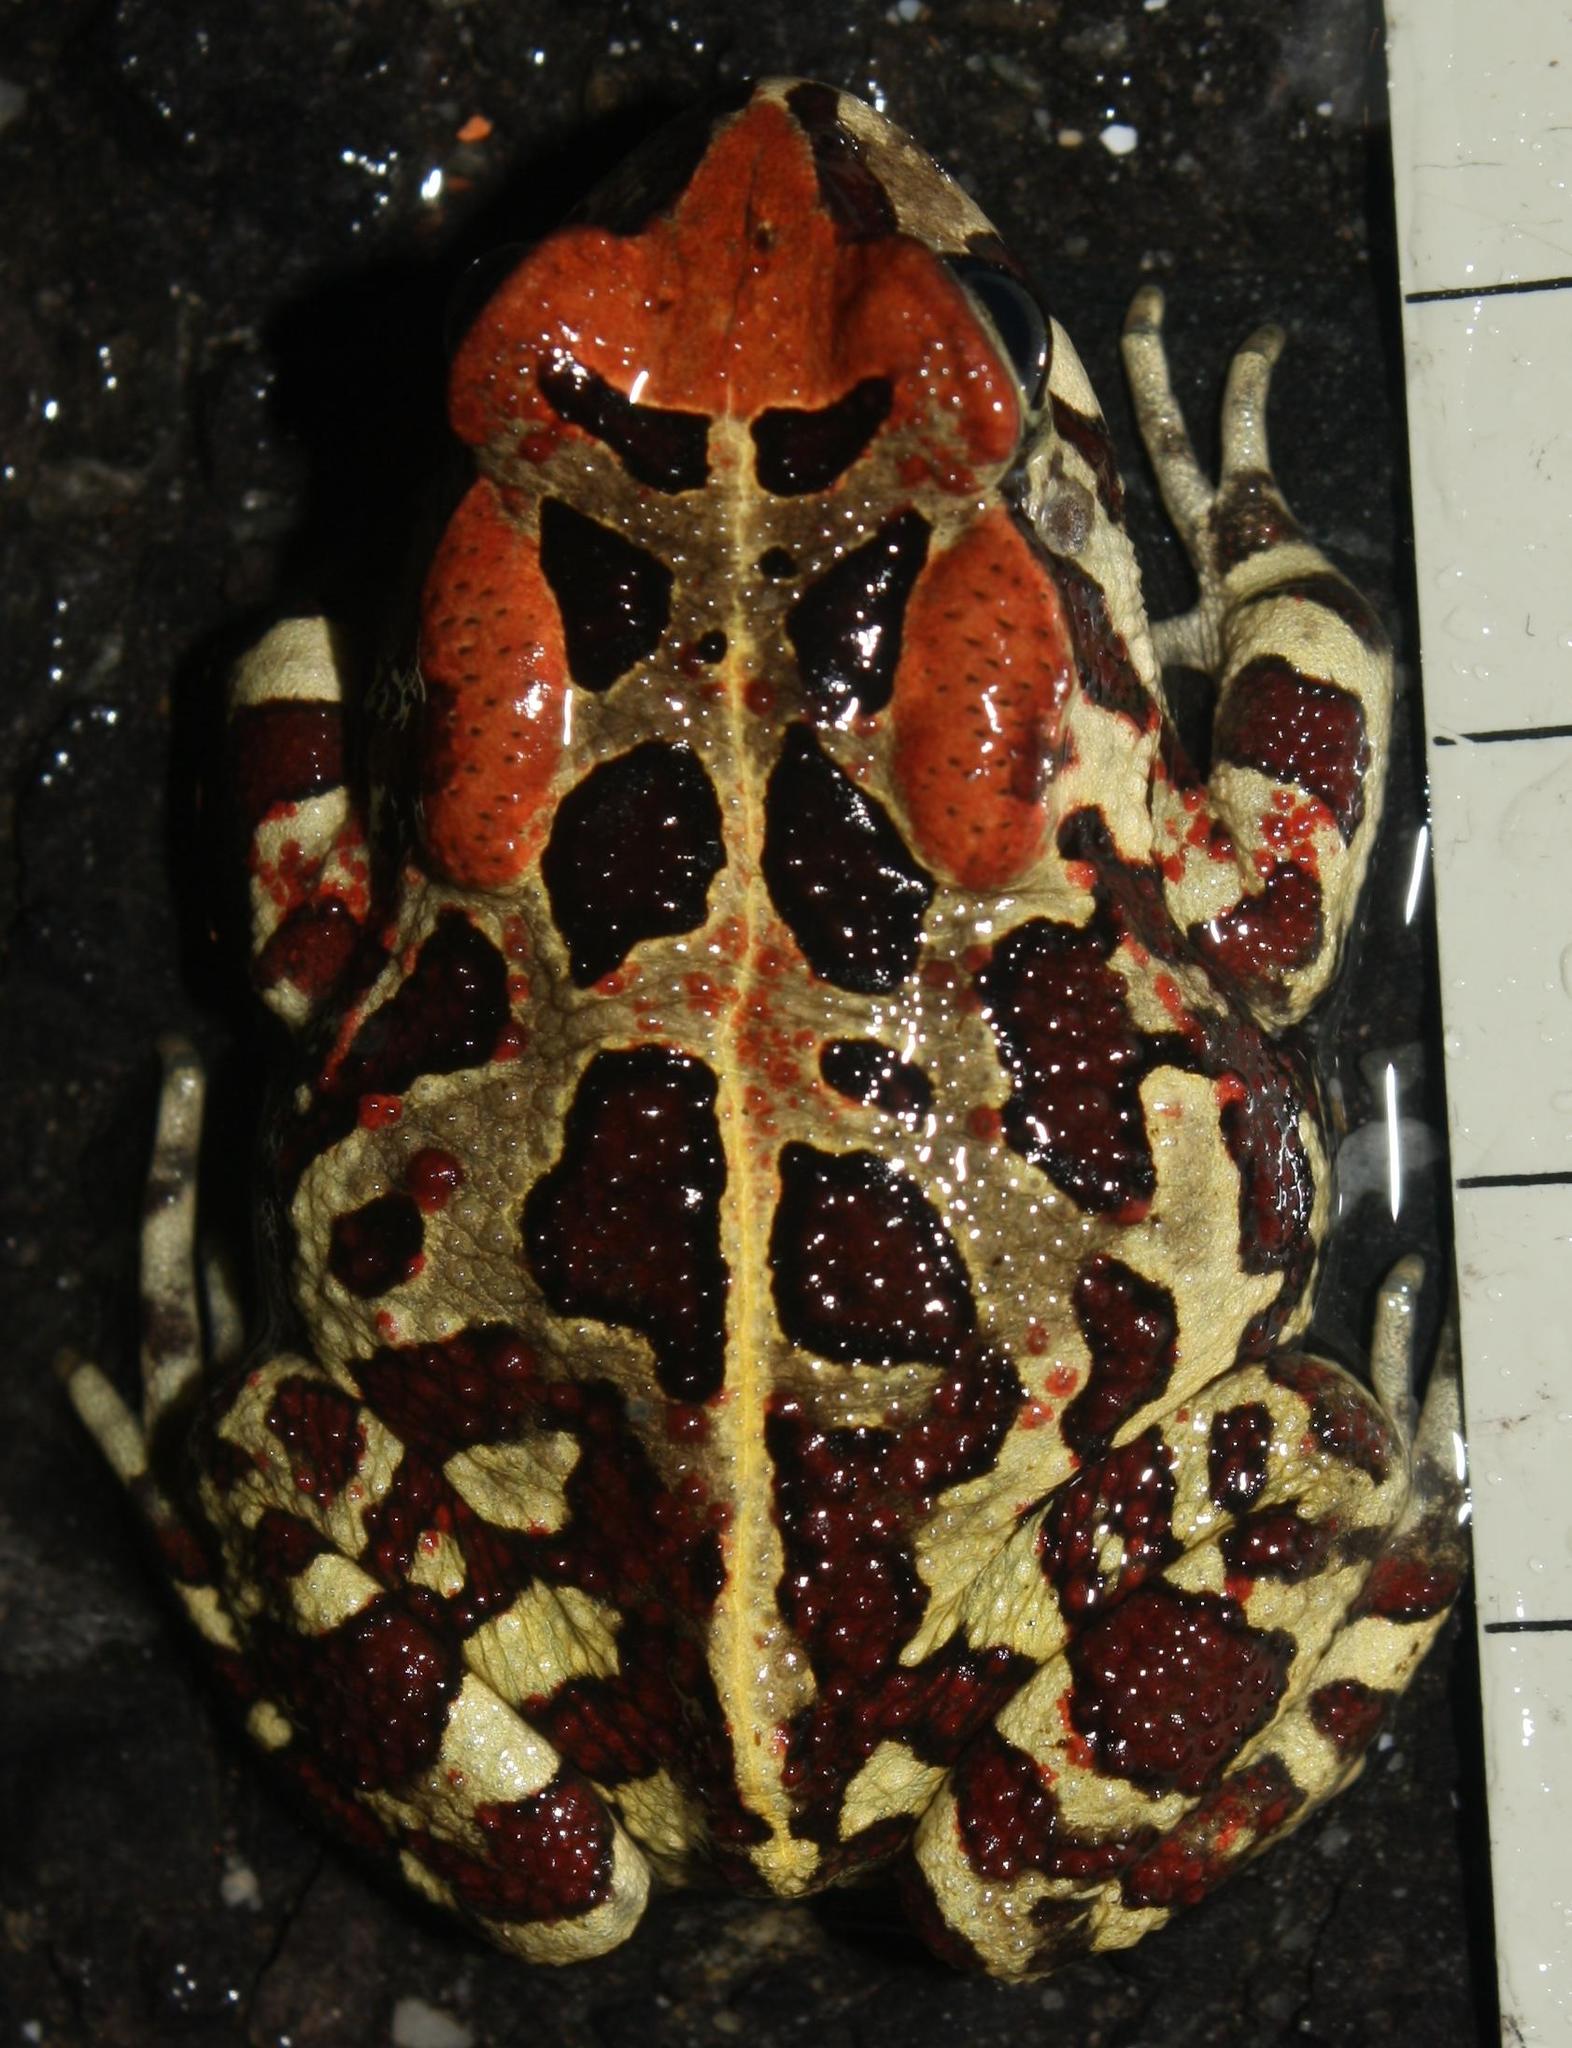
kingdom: Animalia
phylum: Chordata
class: Amphibia
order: Anura
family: Bufonidae
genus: Sclerophrys
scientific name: Sclerophrys pantherina
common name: Panther toad
